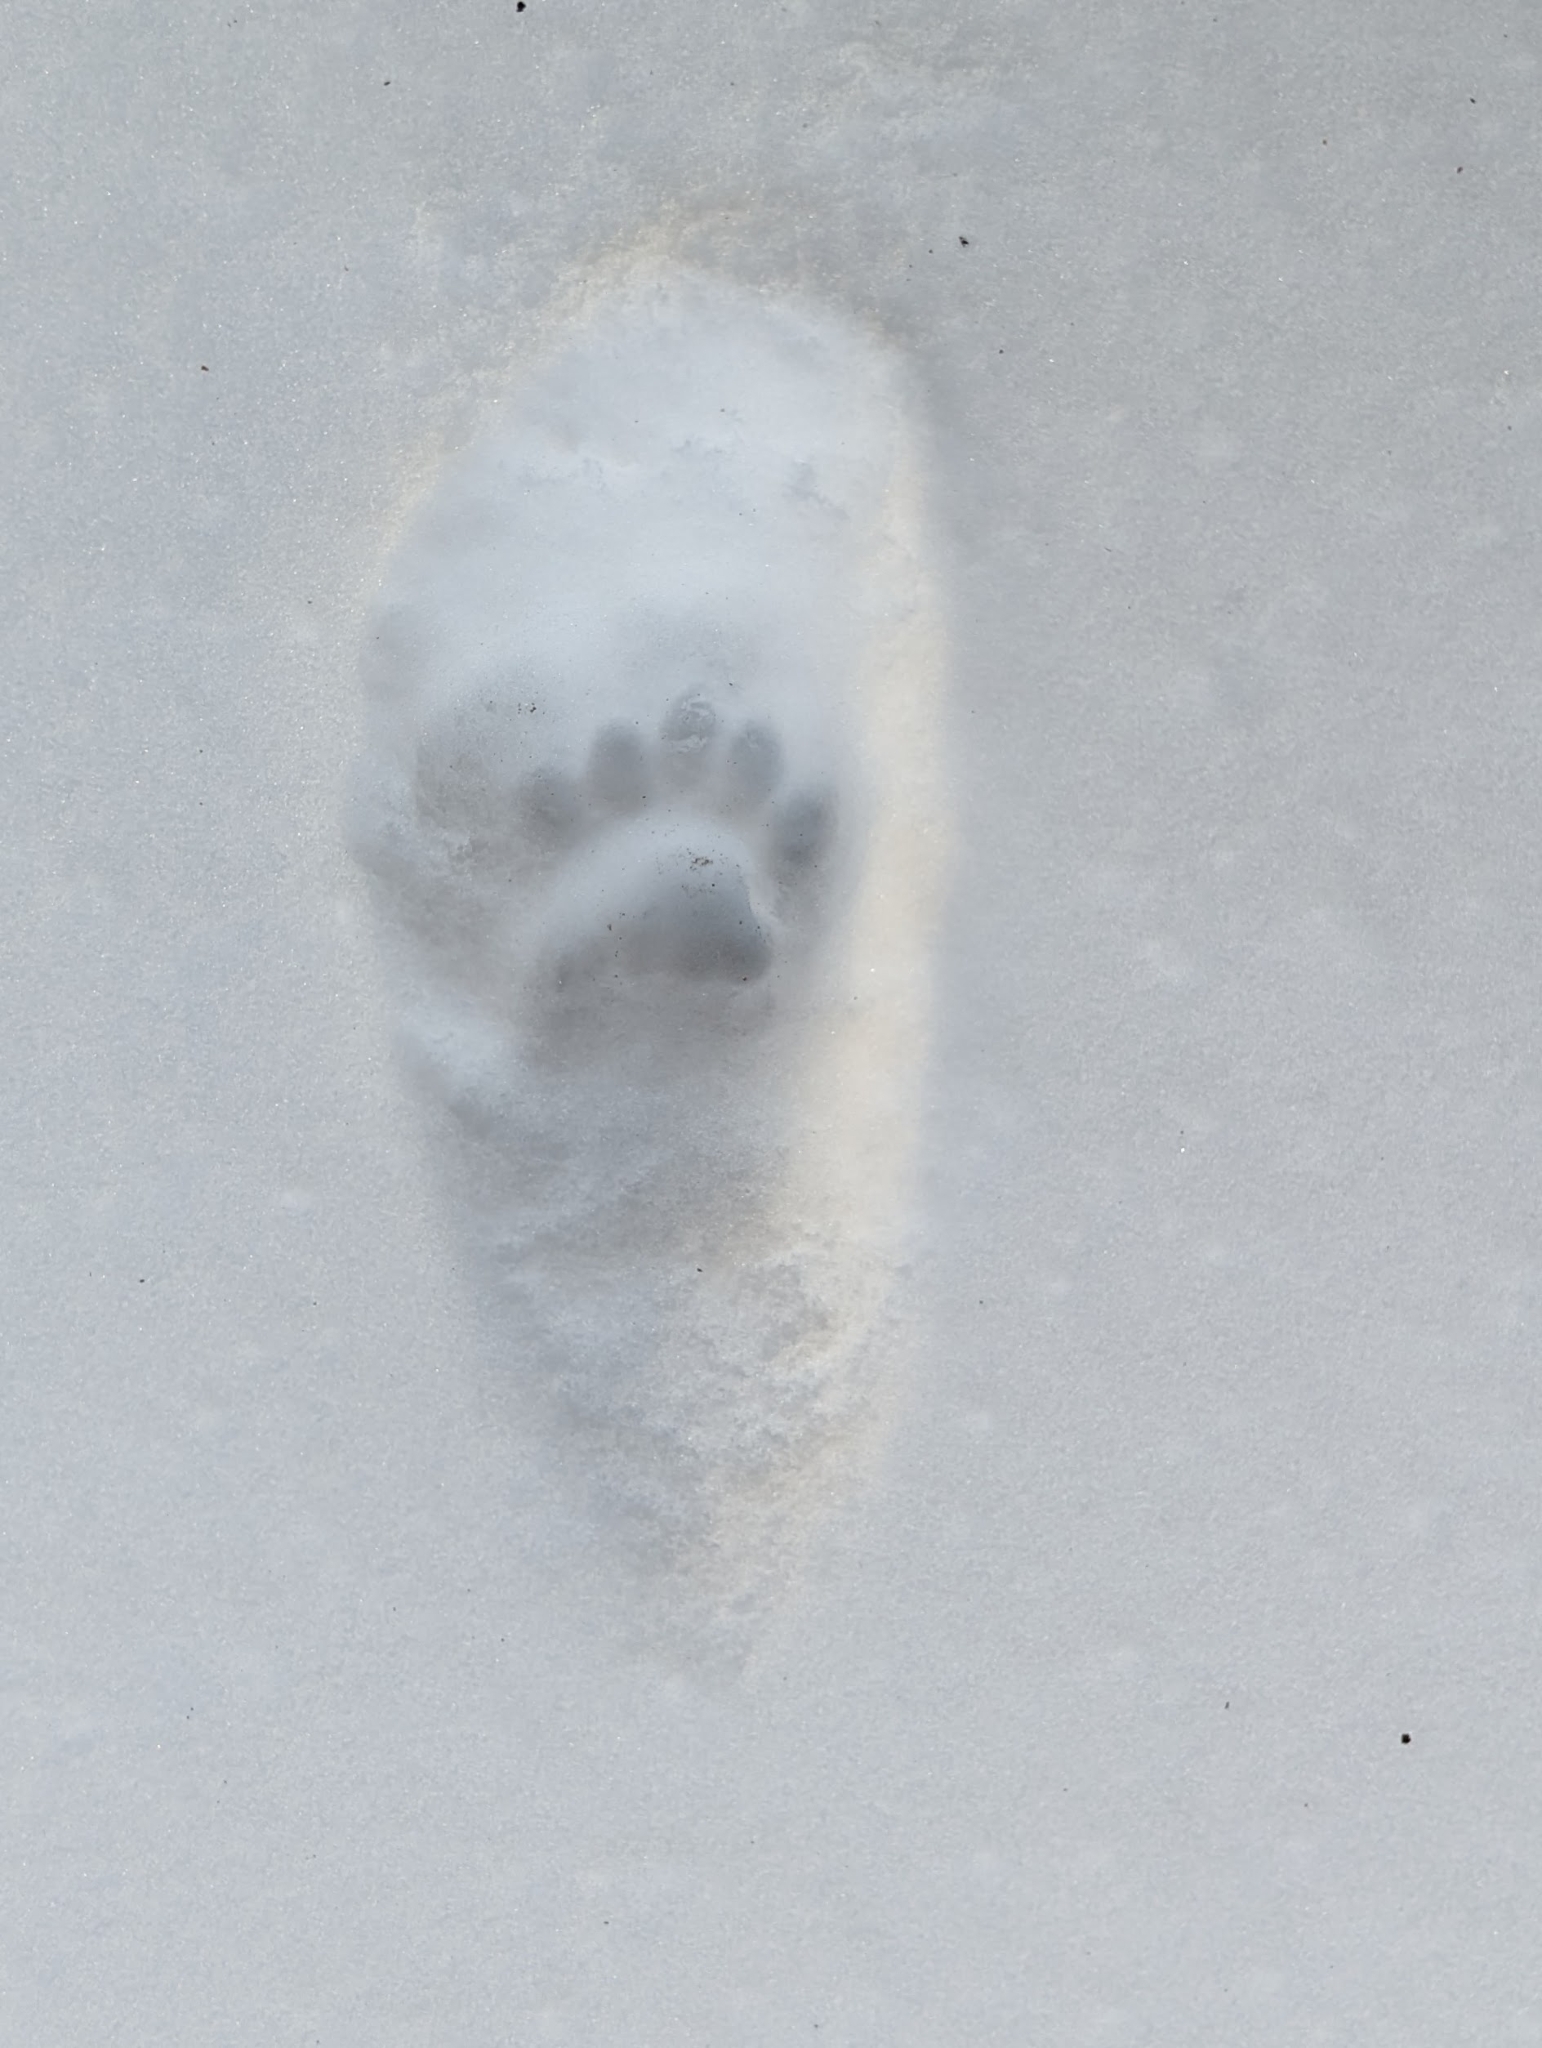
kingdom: Animalia
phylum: Chordata
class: Mammalia
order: Carnivora
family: Felidae
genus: Felis
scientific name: Felis catus
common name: Domestic cat
